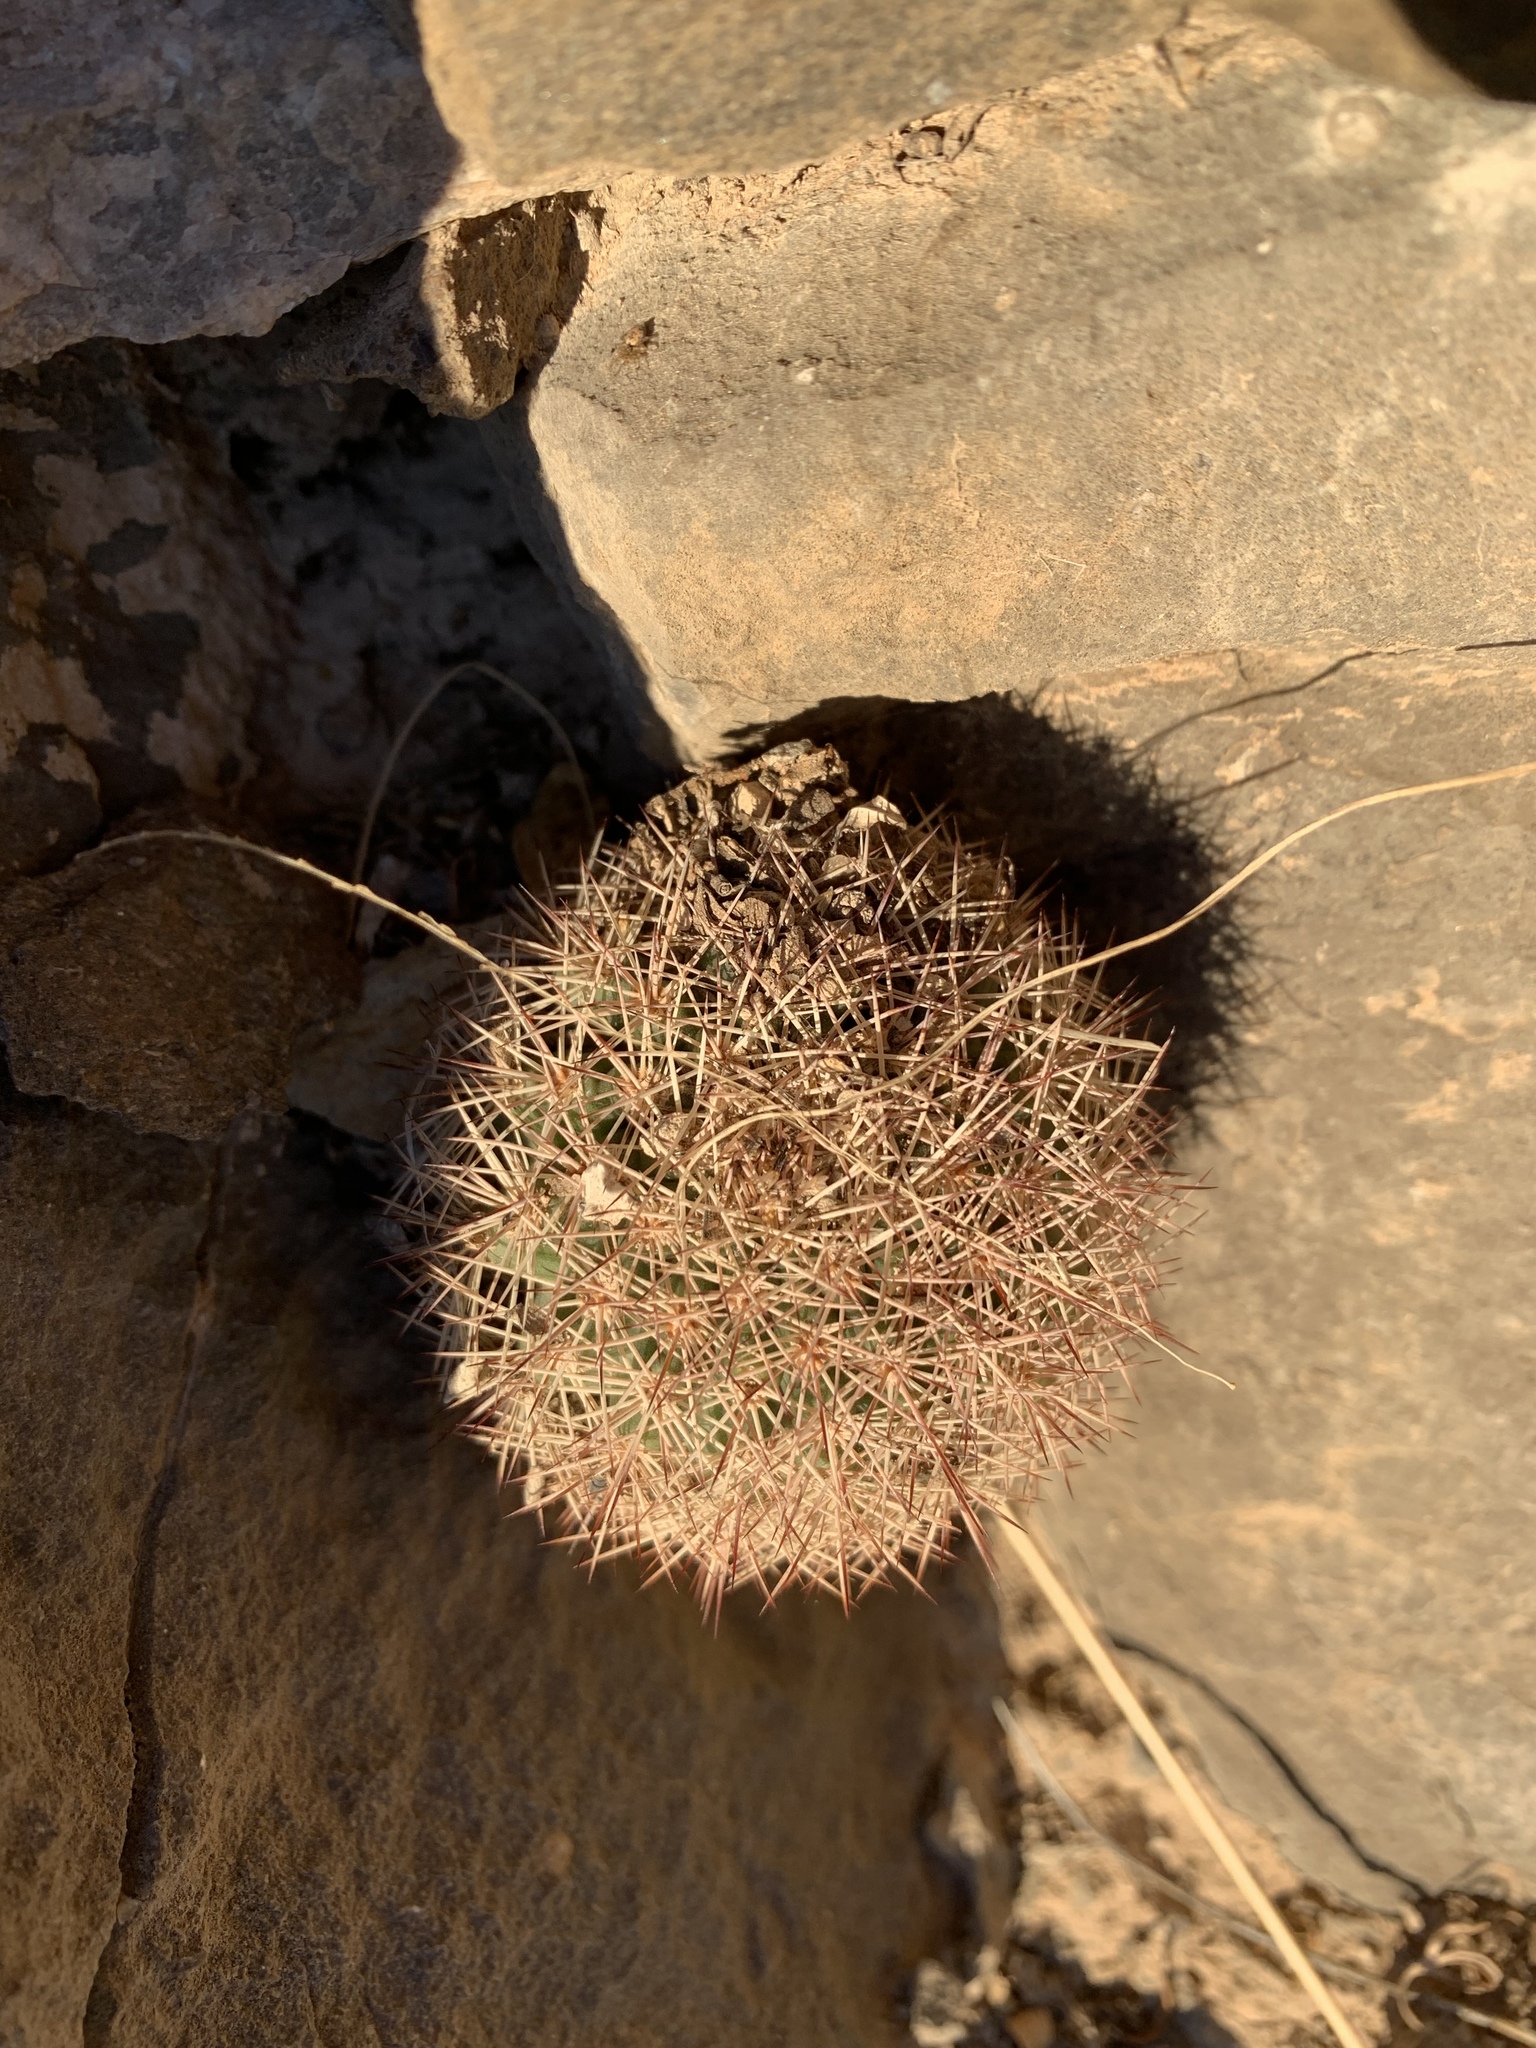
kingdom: Plantae
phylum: Tracheophyta
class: Magnoliopsida
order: Caryophyllales
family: Cactaceae
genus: Echinocereus
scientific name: Echinocereus dasyacanthus
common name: Spiny hedgehog cactus
